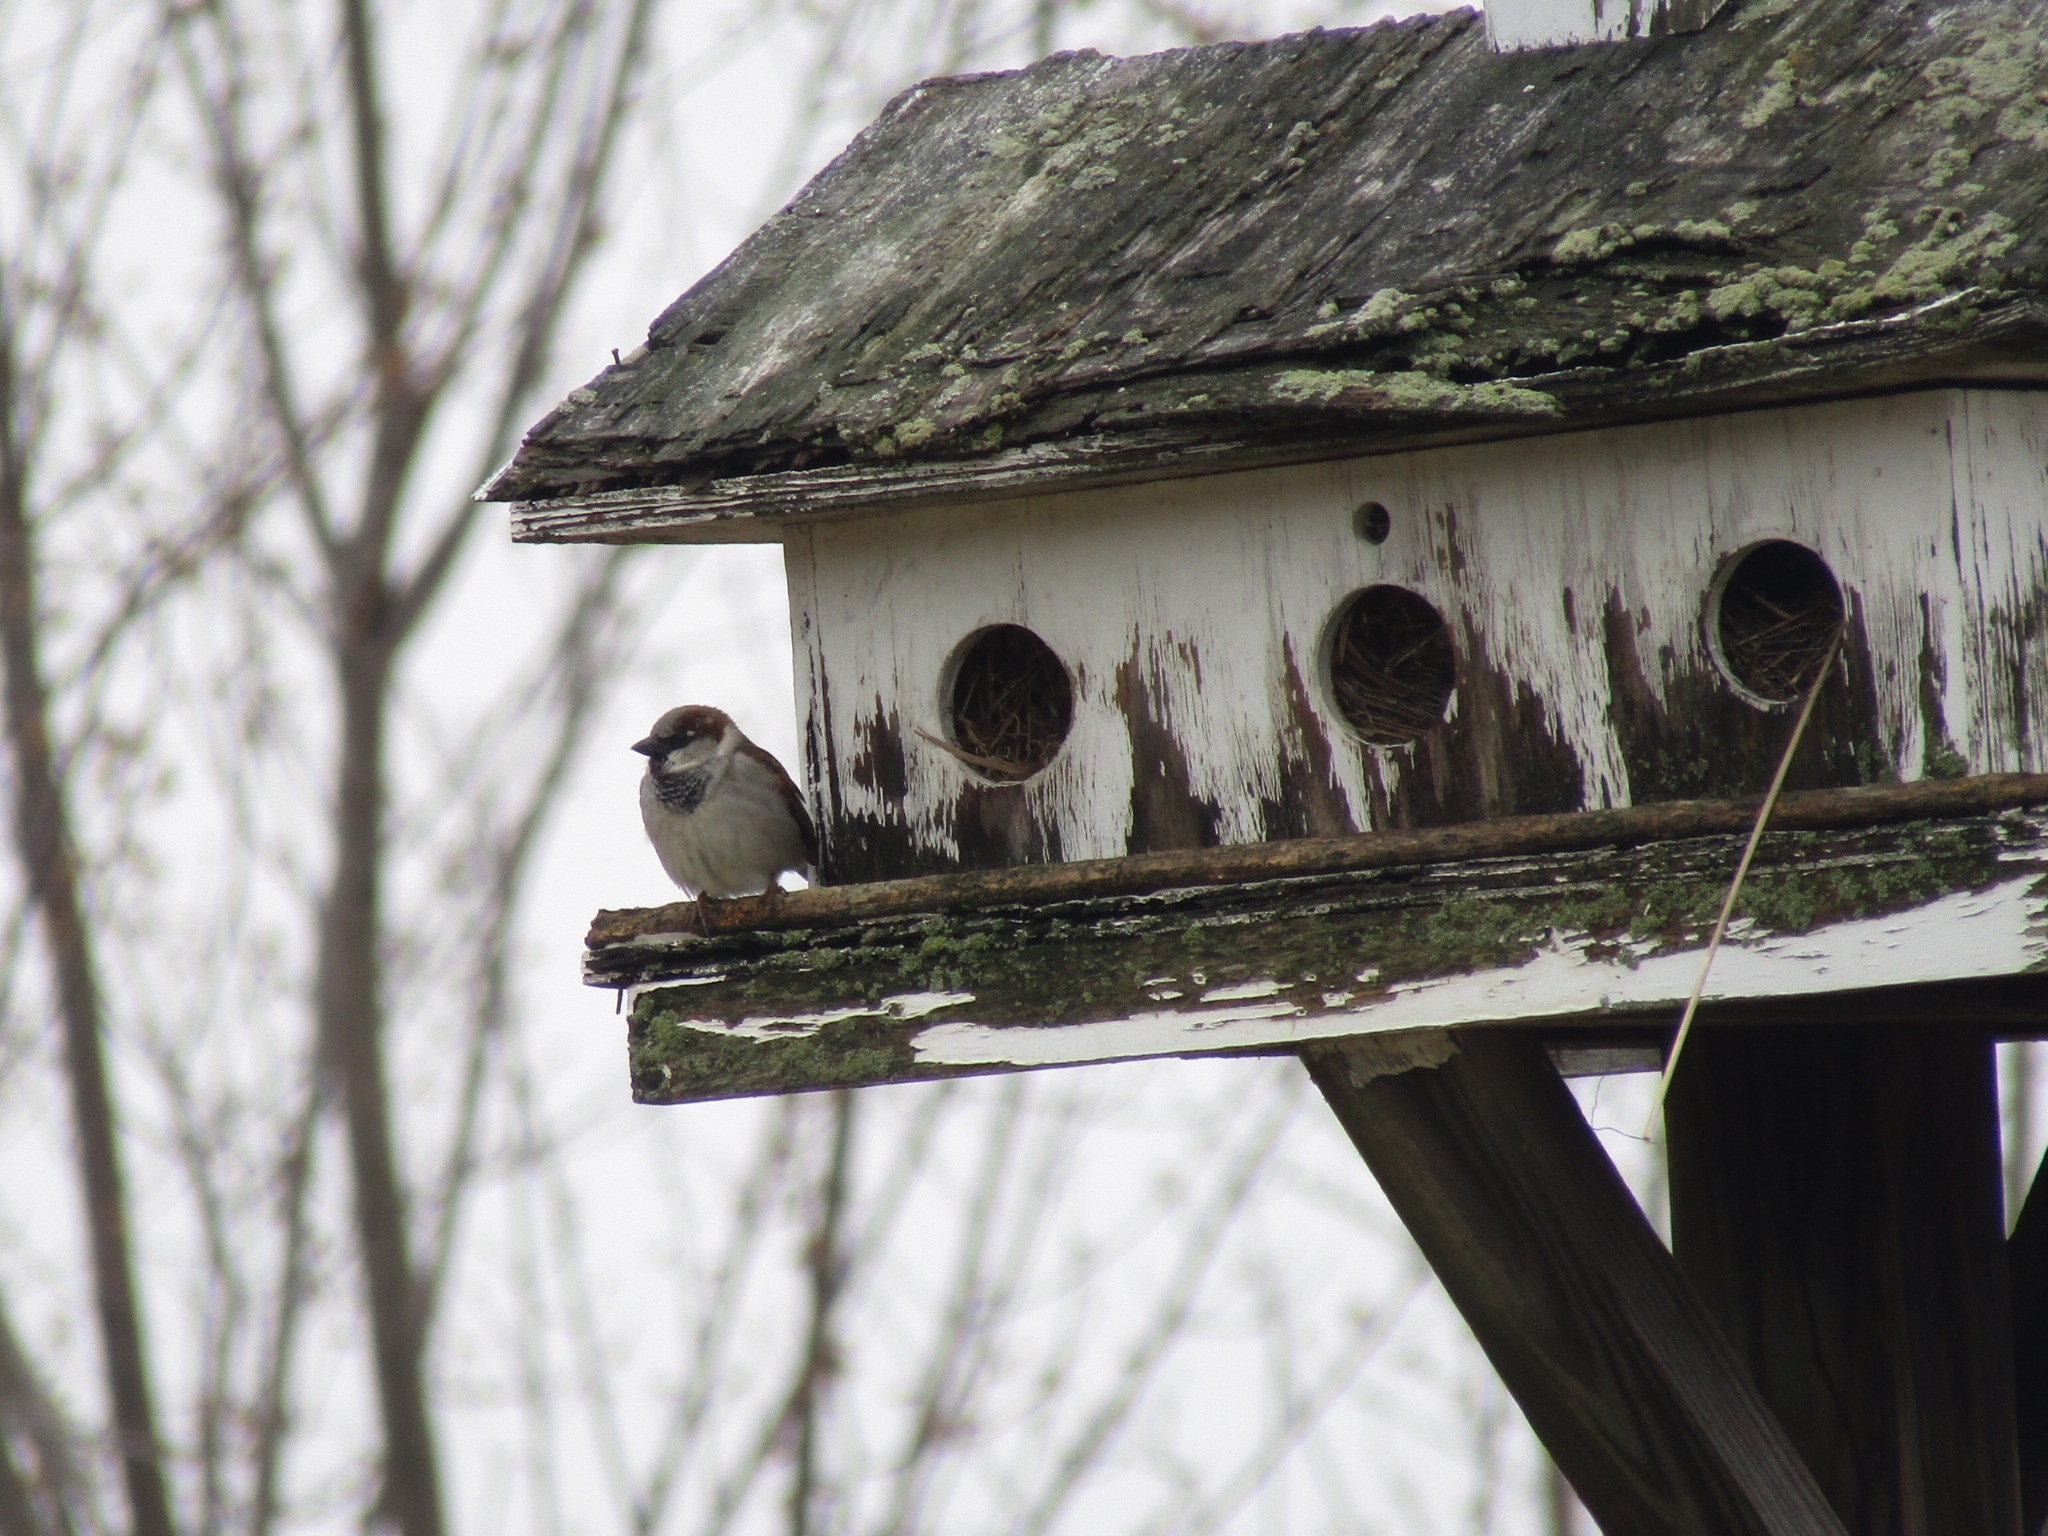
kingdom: Animalia
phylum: Chordata
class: Aves
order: Passeriformes
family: Passeridae
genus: Passer
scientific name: Passer domesticus
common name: House sparrow
